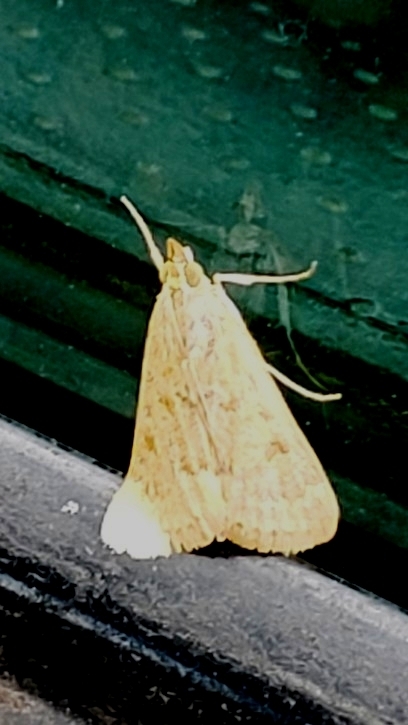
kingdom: Animalia
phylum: Arthropoda
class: Insecta
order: Lepidoptera
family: Crambidae
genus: Achyra
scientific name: Achyra rantalis
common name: Garden webworm
